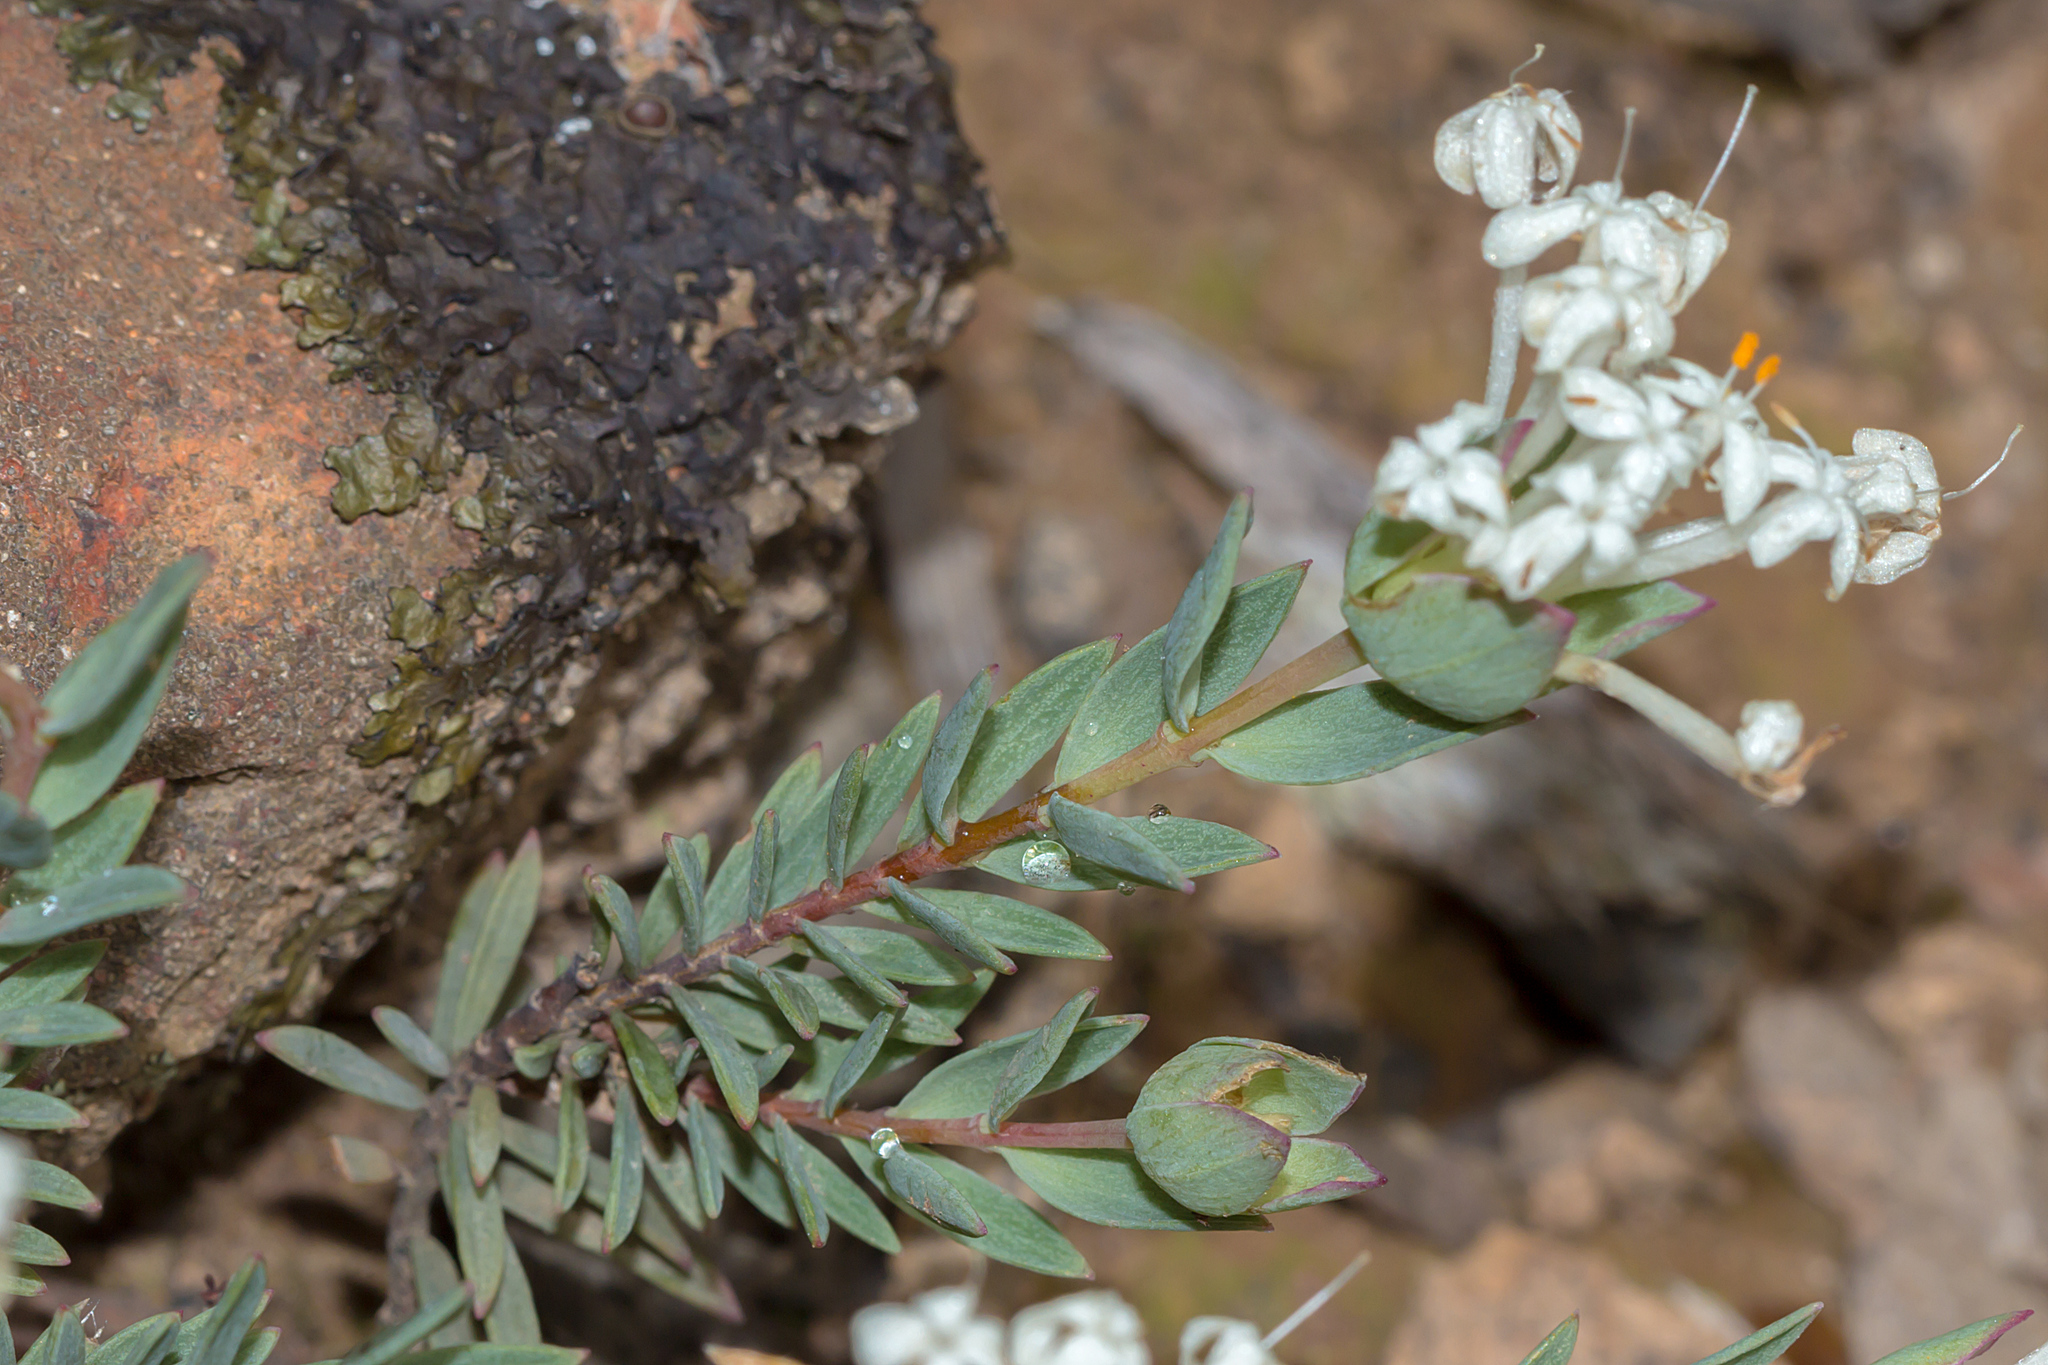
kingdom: Plantae
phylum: Tracheophyta
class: Magnoliopsida
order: Malvales
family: Thymelaeaceae
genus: Pimelea
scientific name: Pimelea linifolia
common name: Queen-of-the-bush
